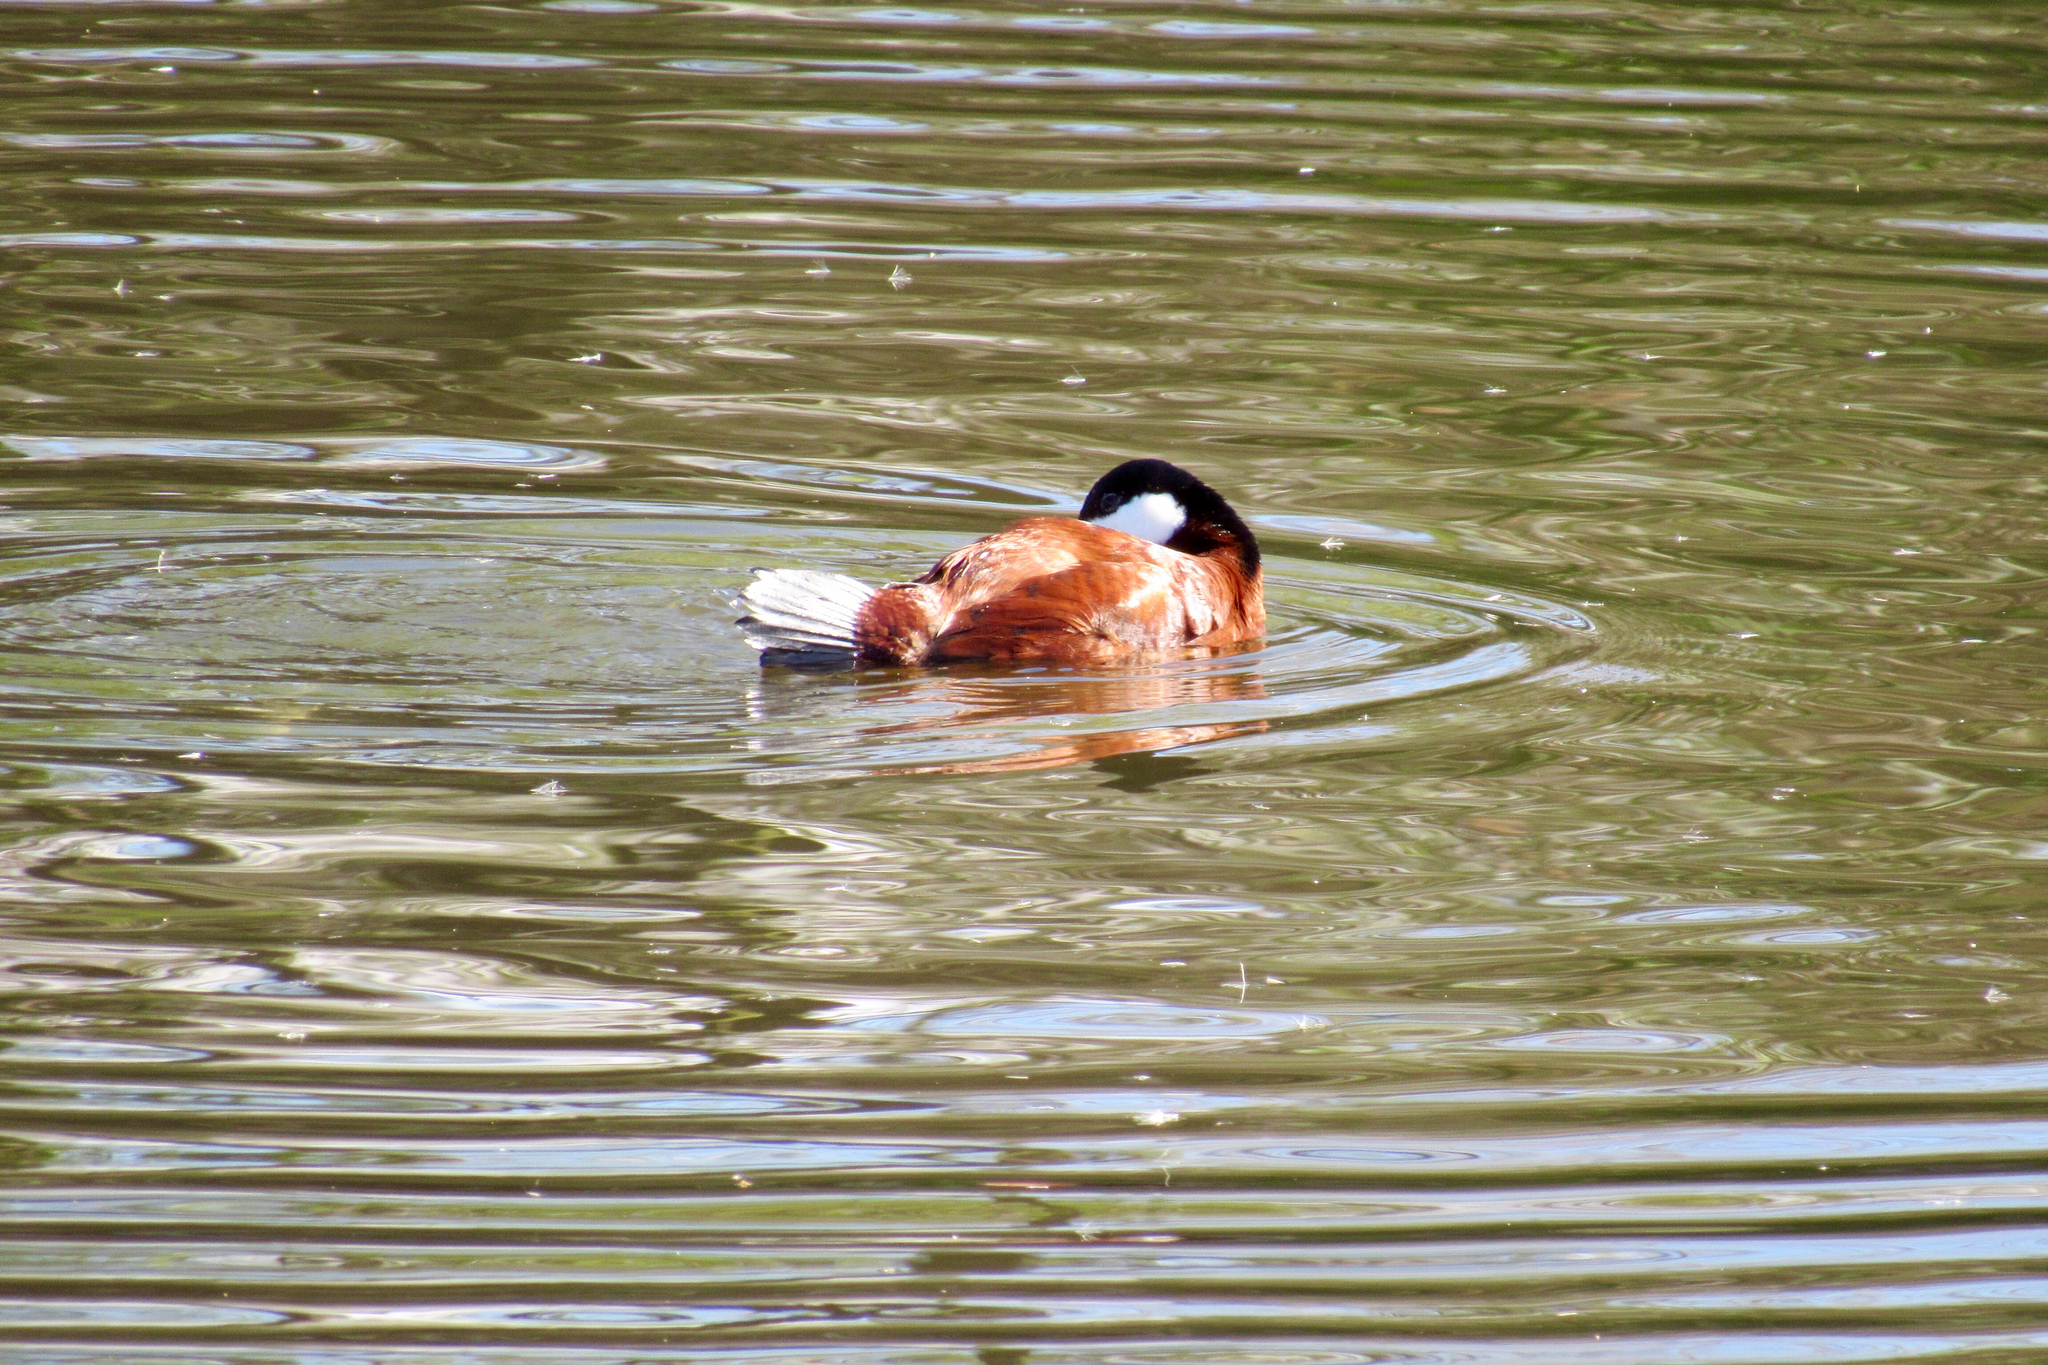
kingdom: Animalia
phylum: Chordata
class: Aves
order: Anseriformes
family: Anatidae
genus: Oxyura
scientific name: Oxyura jamaicensis
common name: Ruddy duck
